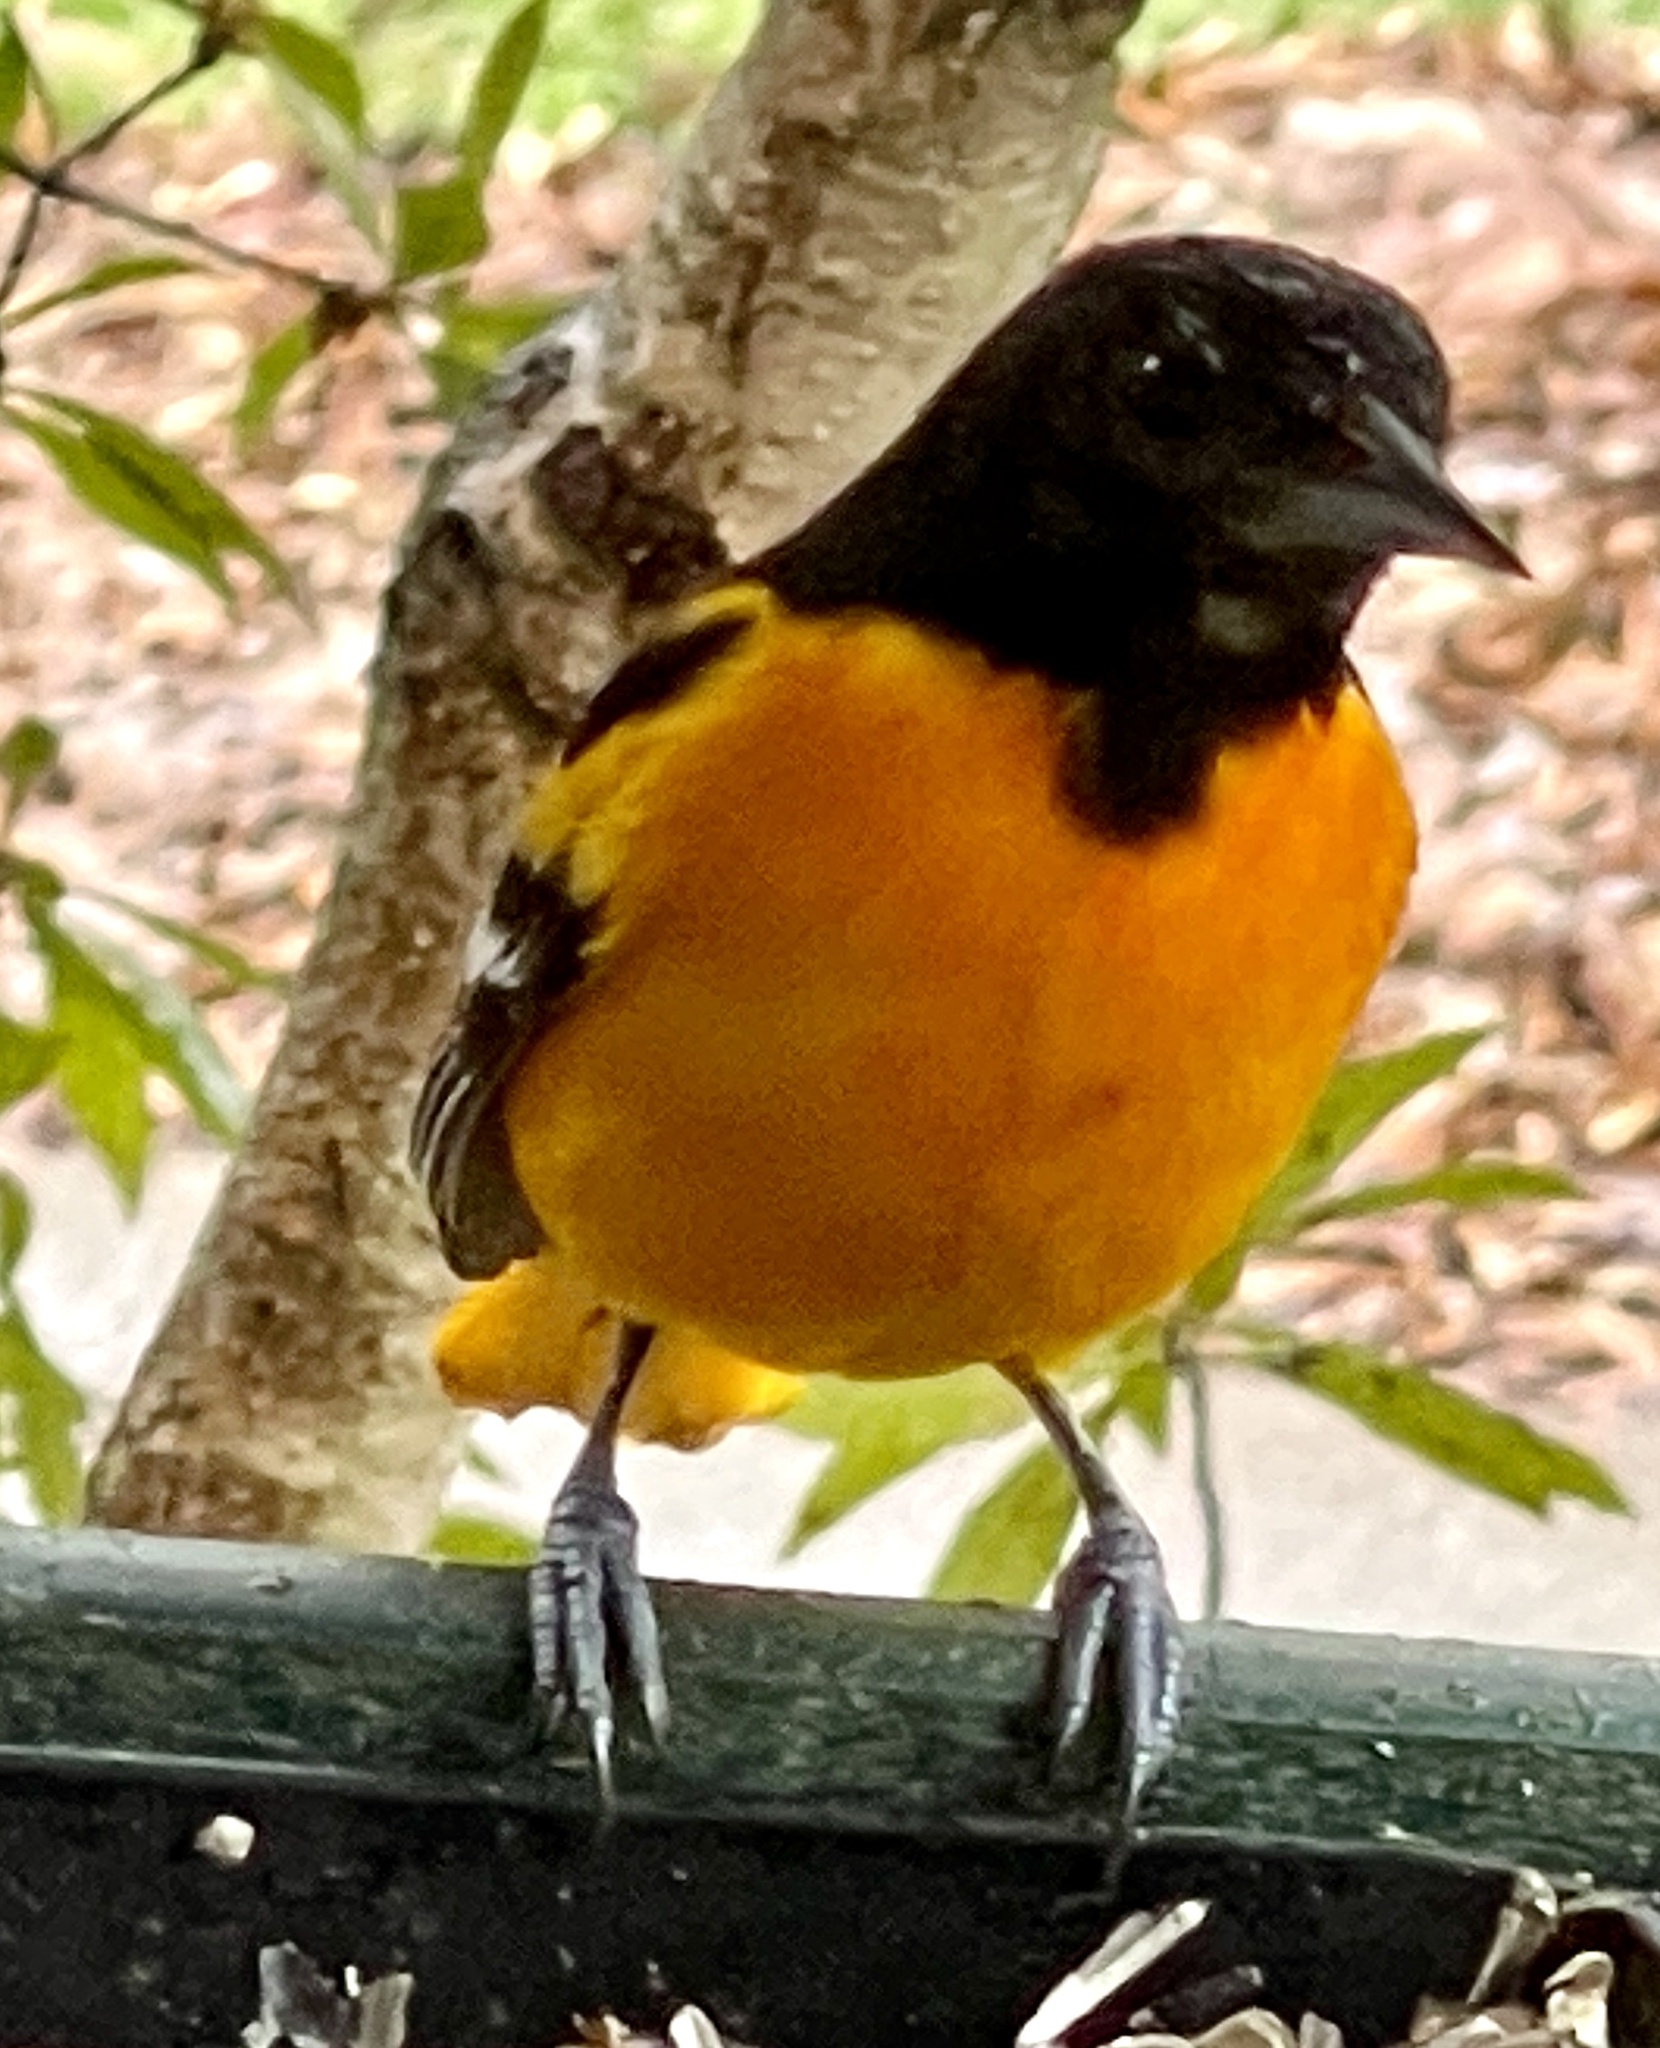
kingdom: Animalia
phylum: Chordata
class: Aves
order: Passeriformes
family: Icteridae
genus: Icterus
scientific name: Icterus galbula
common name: Baltimore oriole
